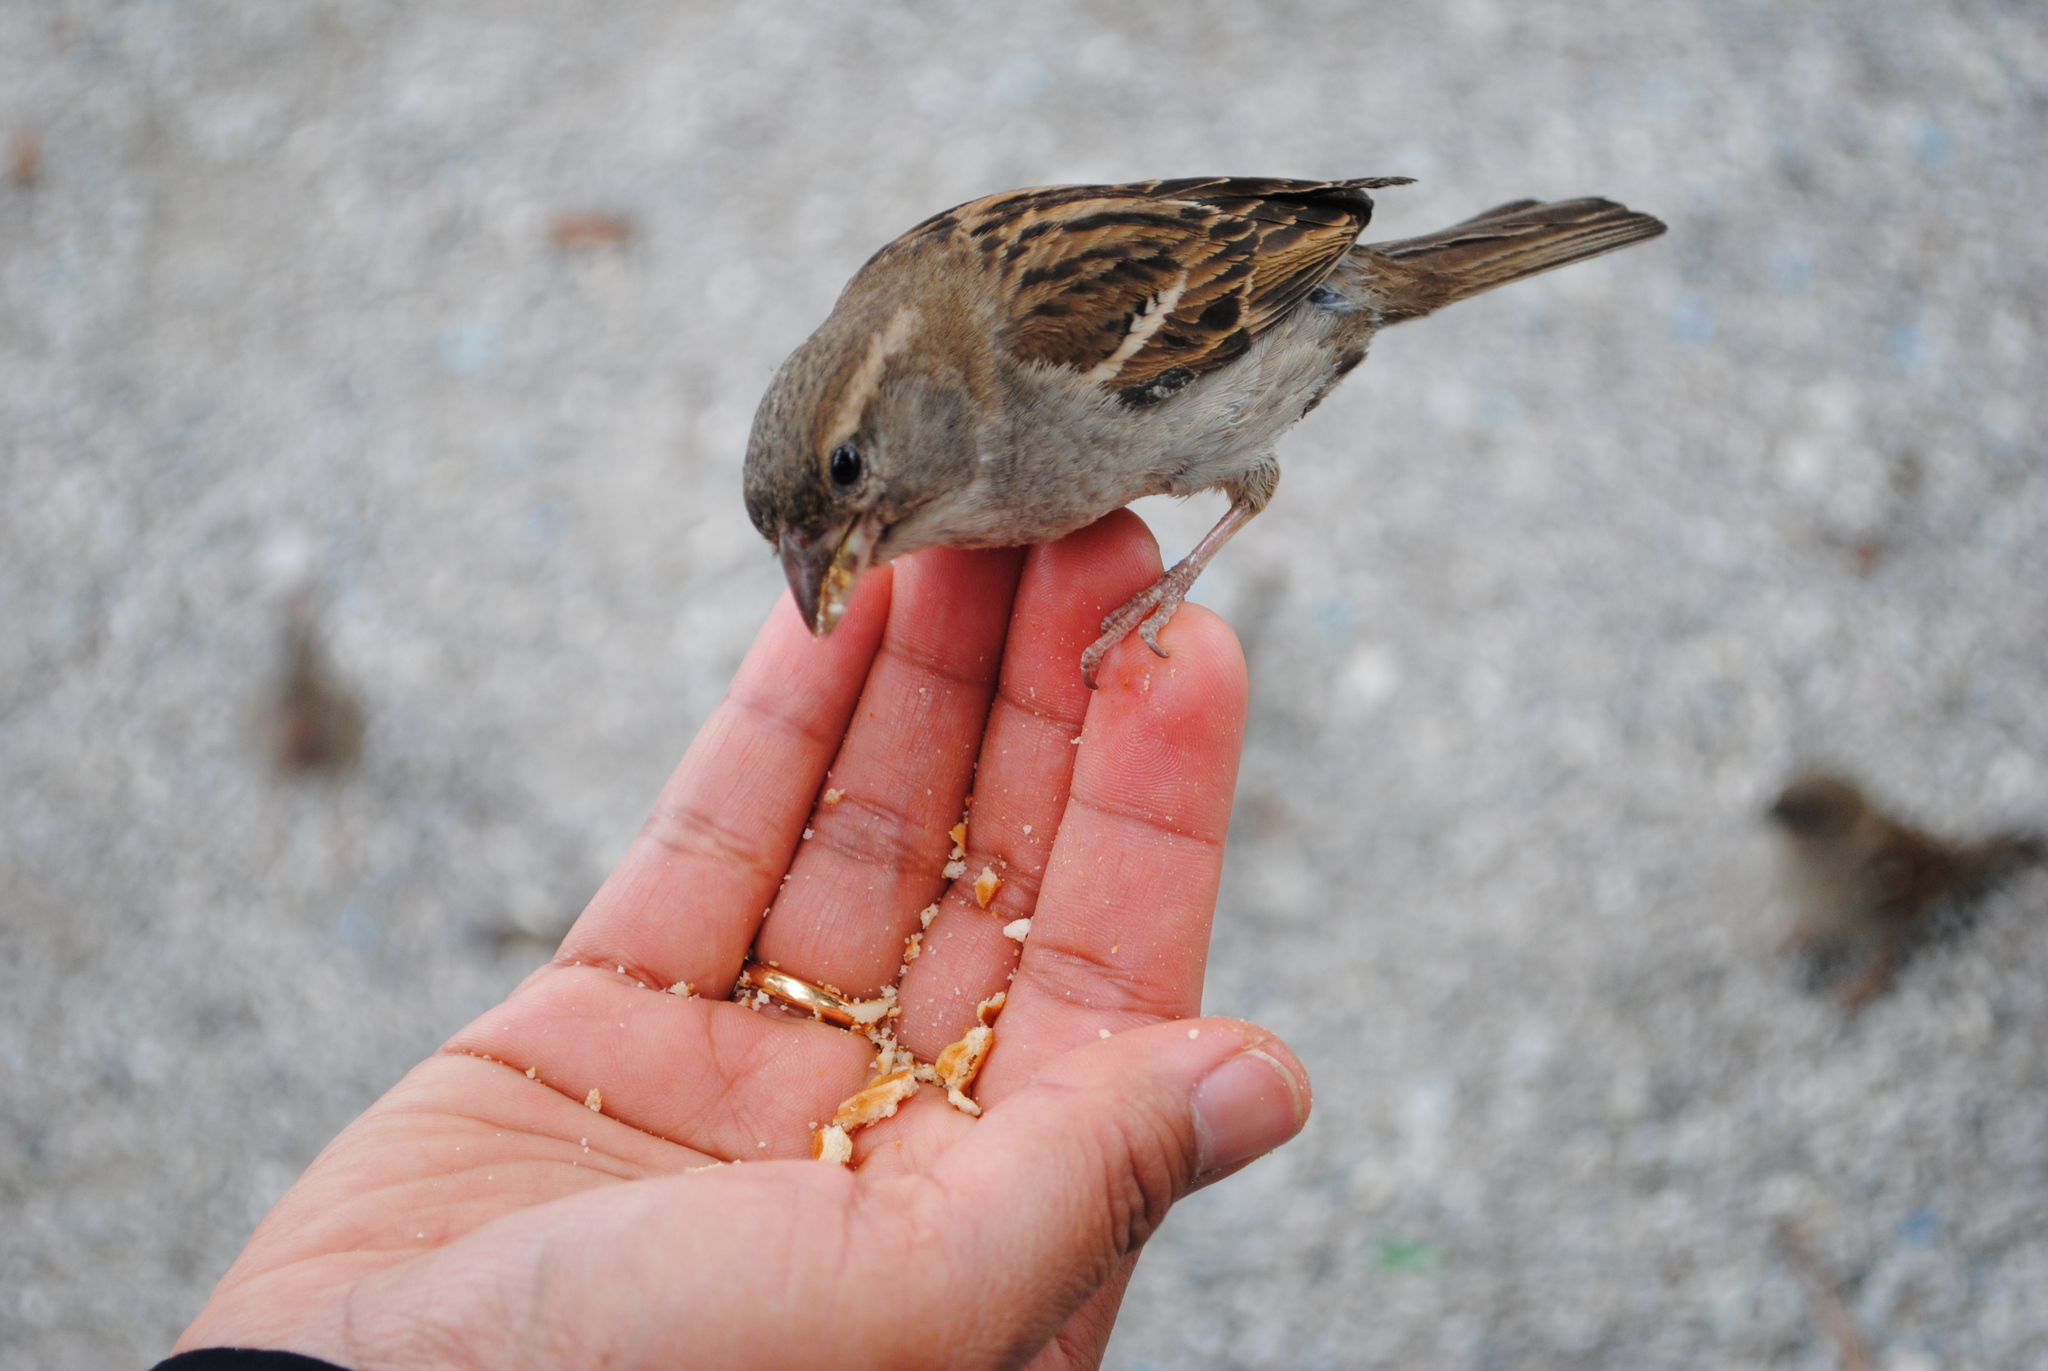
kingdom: Animalia
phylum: Chordata
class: Aves
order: Passeriformes
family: Passeridae
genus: Passer
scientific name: Passer domesticus
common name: House sparrow
